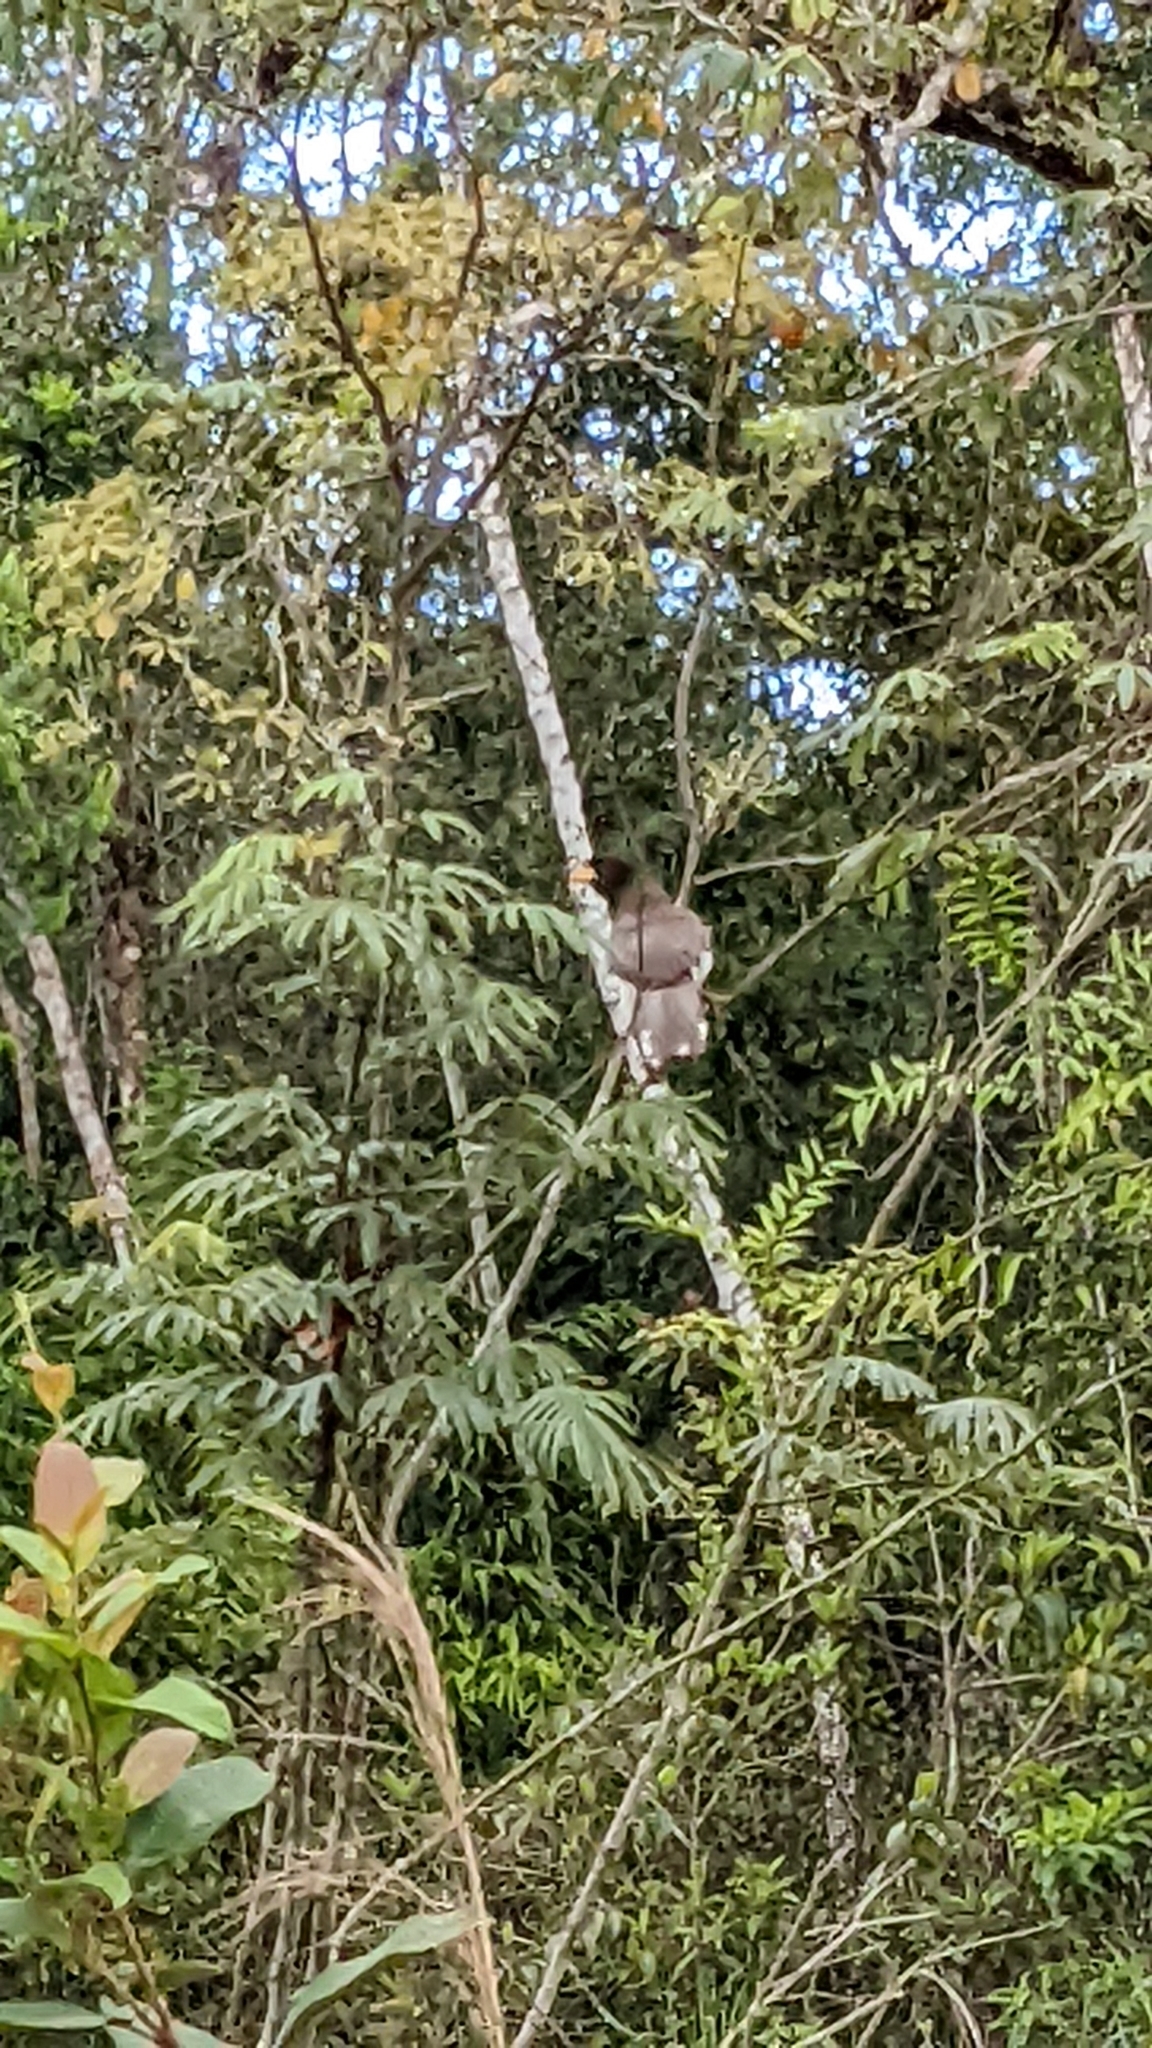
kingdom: Animalia
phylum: Chordata
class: Aves
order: Passeriformes
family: Corvidae
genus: Psilorhinus
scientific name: Psilorhinus morio
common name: Brown jay
